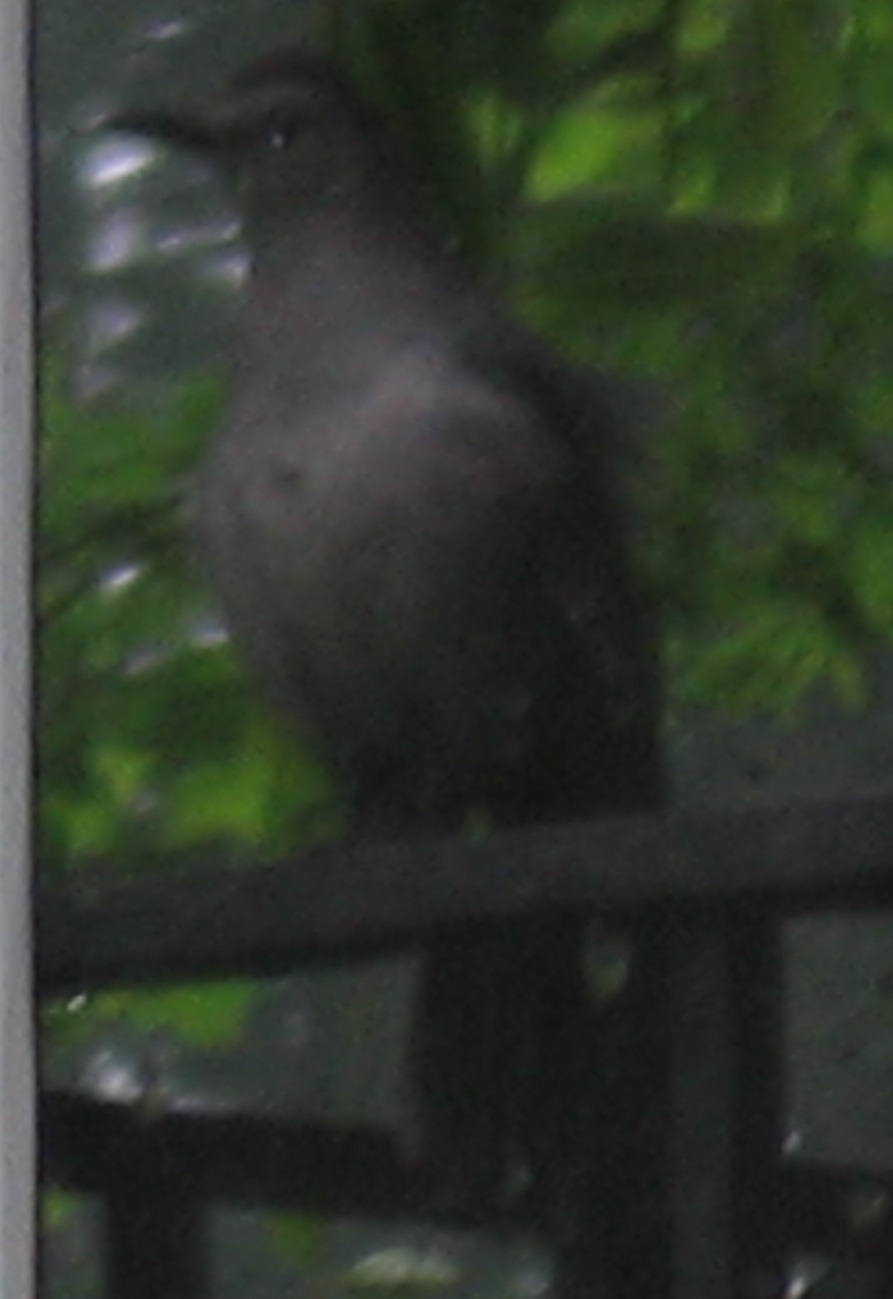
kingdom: Animalia
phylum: Chordata
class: Aves
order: Passeriformes
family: Mimidae
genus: Dumetella
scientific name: Dumetella carolinensis
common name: Gray catbird
